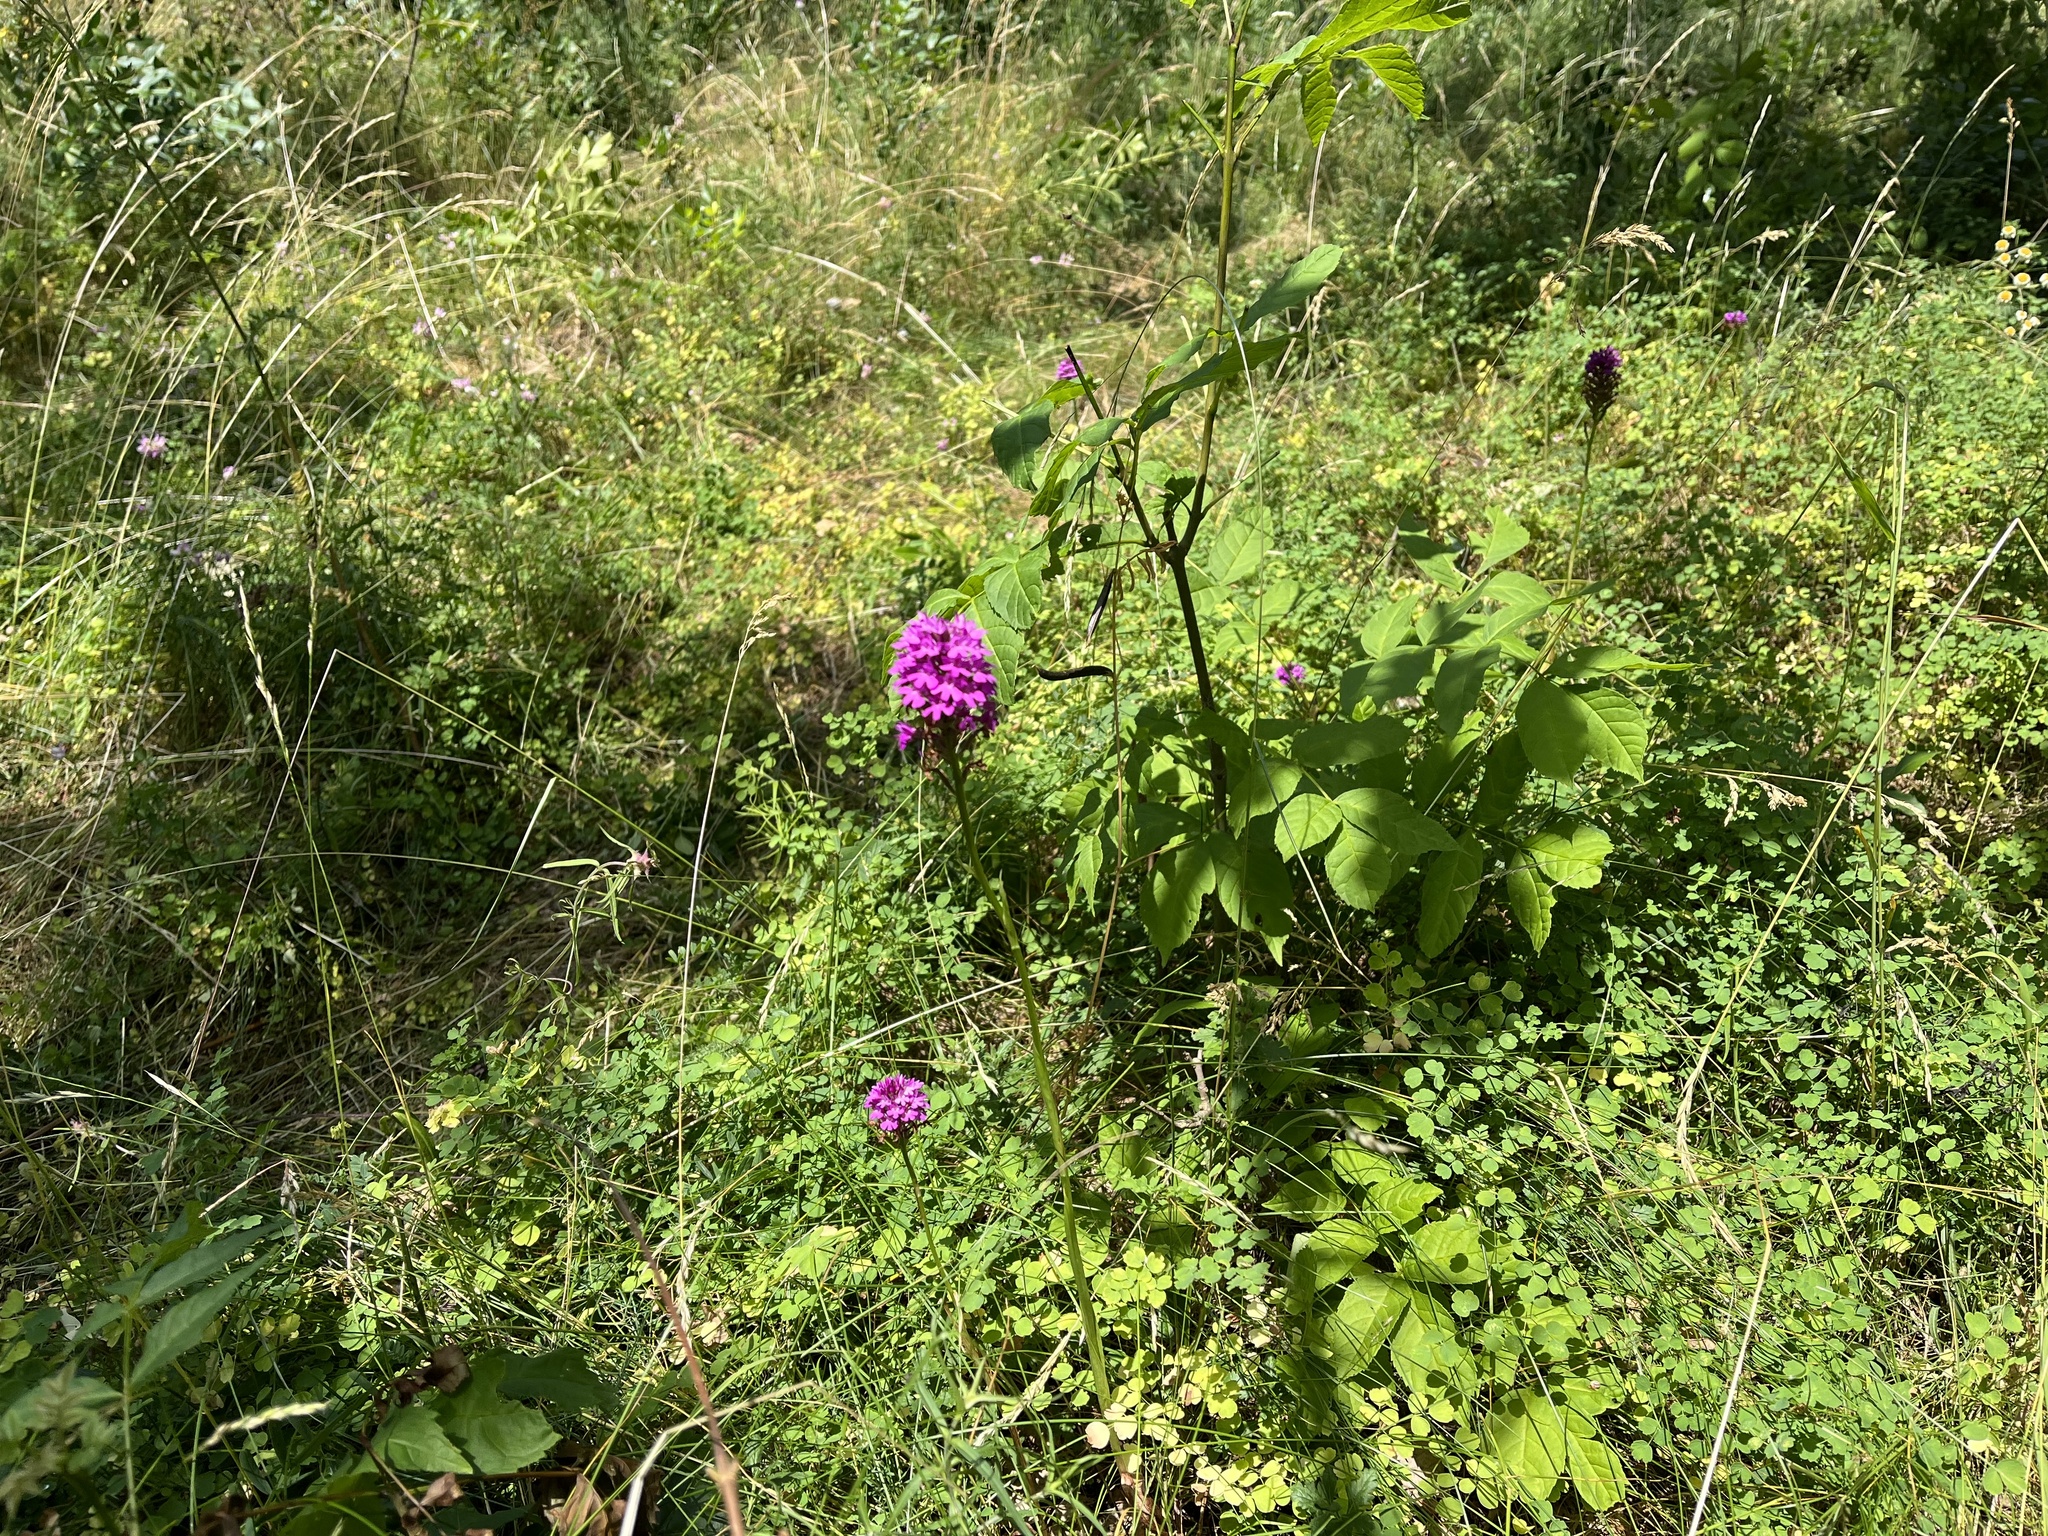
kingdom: Plantae
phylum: Tracheophyta
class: Liliopsida
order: Asparagales
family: Orchidaceae
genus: Anacamptis
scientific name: Anacamptis pyramidalis
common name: Pyramidal orchid
